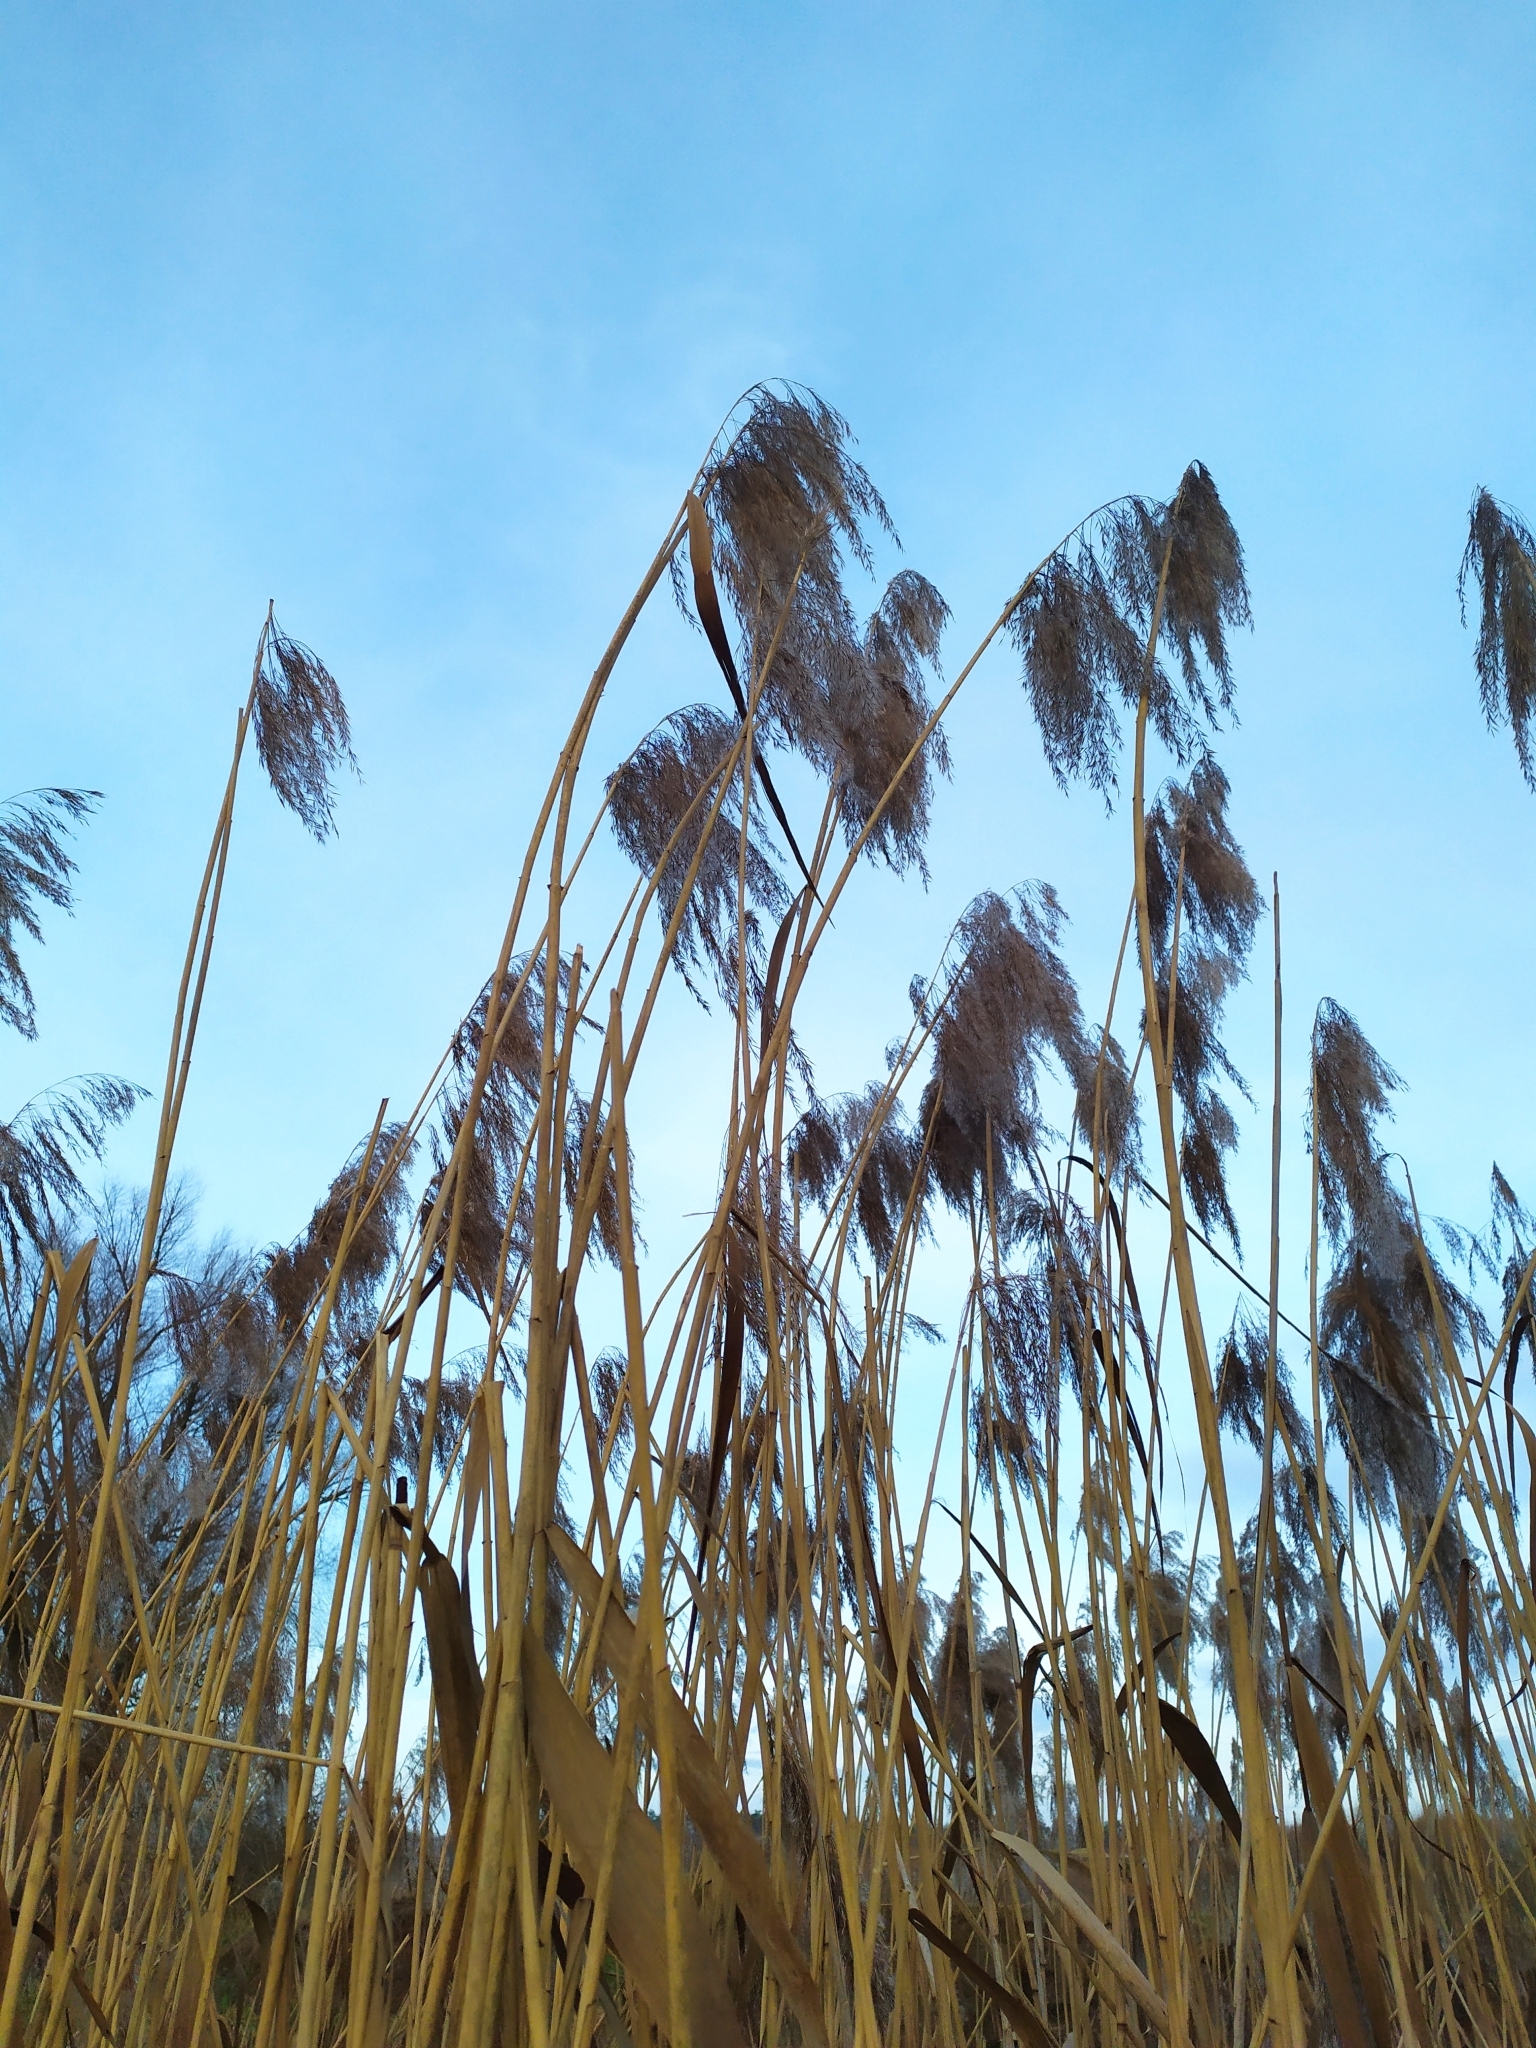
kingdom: Plantae
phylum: Tracheophyta
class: Liliopsida
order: Poales
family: Poaceae
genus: Phragmites
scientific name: Phragmites australis
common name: Common reed
